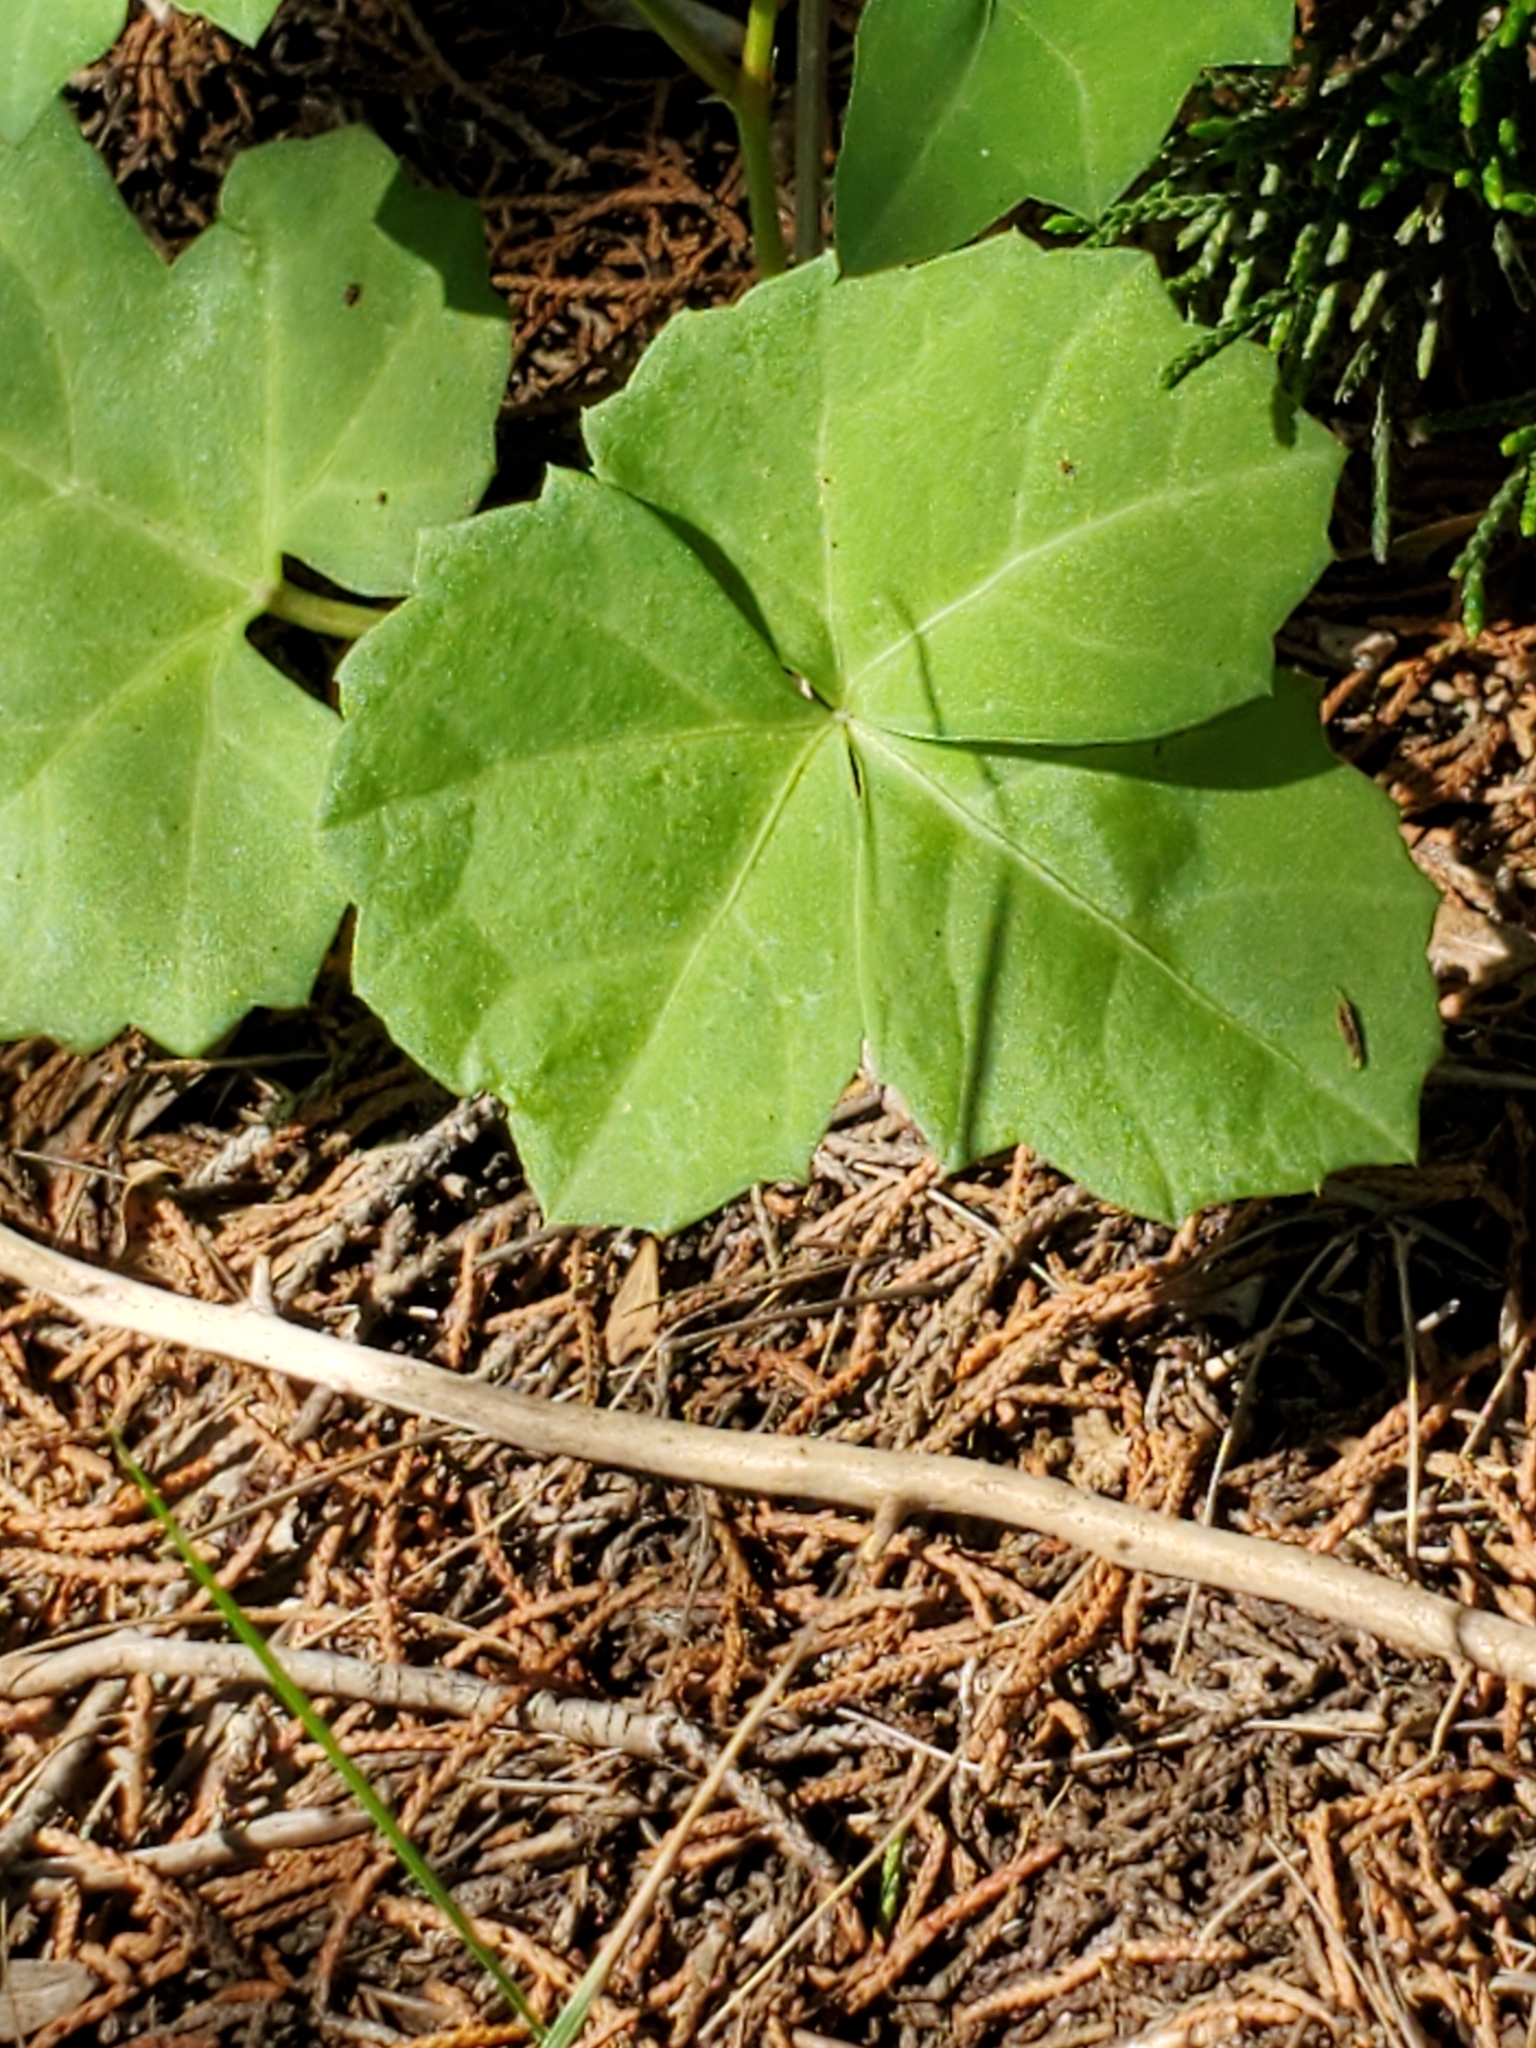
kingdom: Plantae
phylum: Tracheophyta
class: Magnoliopsida
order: Vitales
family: Vitaceae
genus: Cissus
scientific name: Cissus trifoliata
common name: Vine-sorrel
